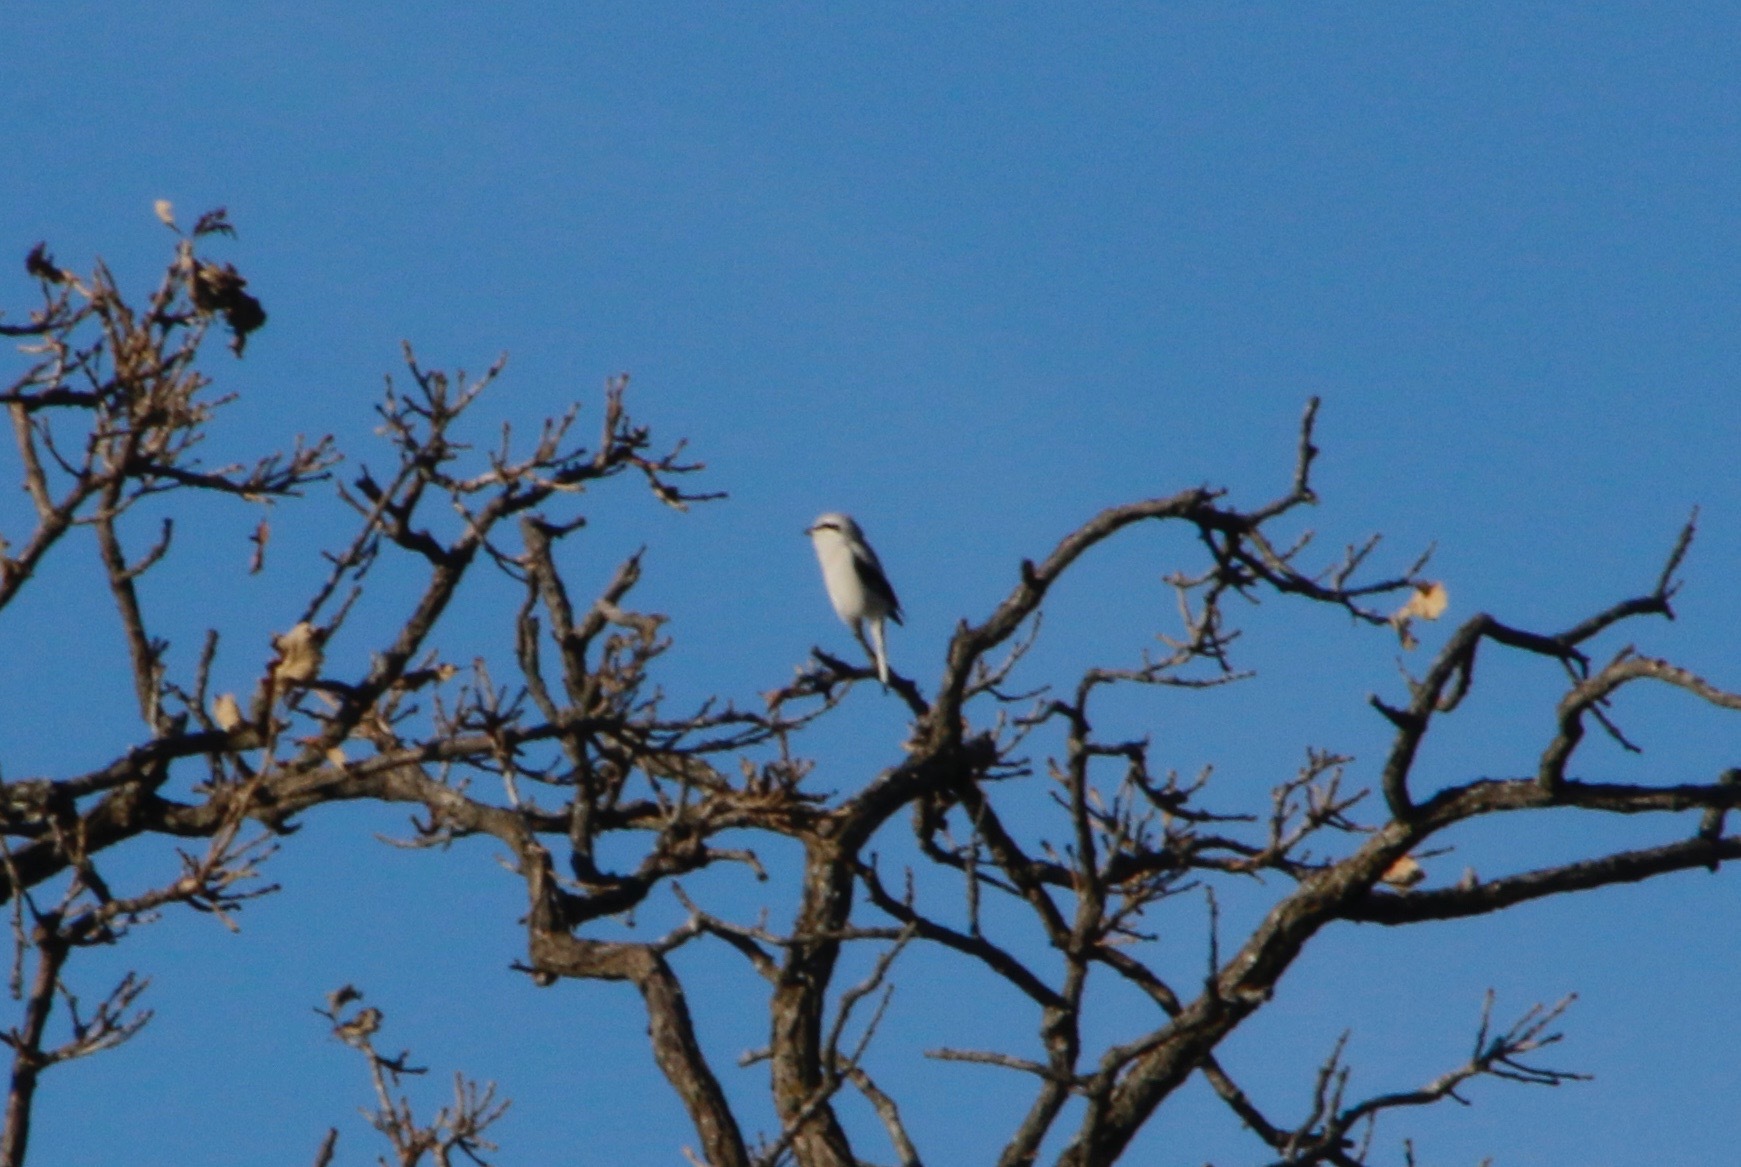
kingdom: Animalia
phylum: Chordata
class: Aves
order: Passeriformes
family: Laniidae
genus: Lanius
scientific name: Lanius borealis
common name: Northern shrike
